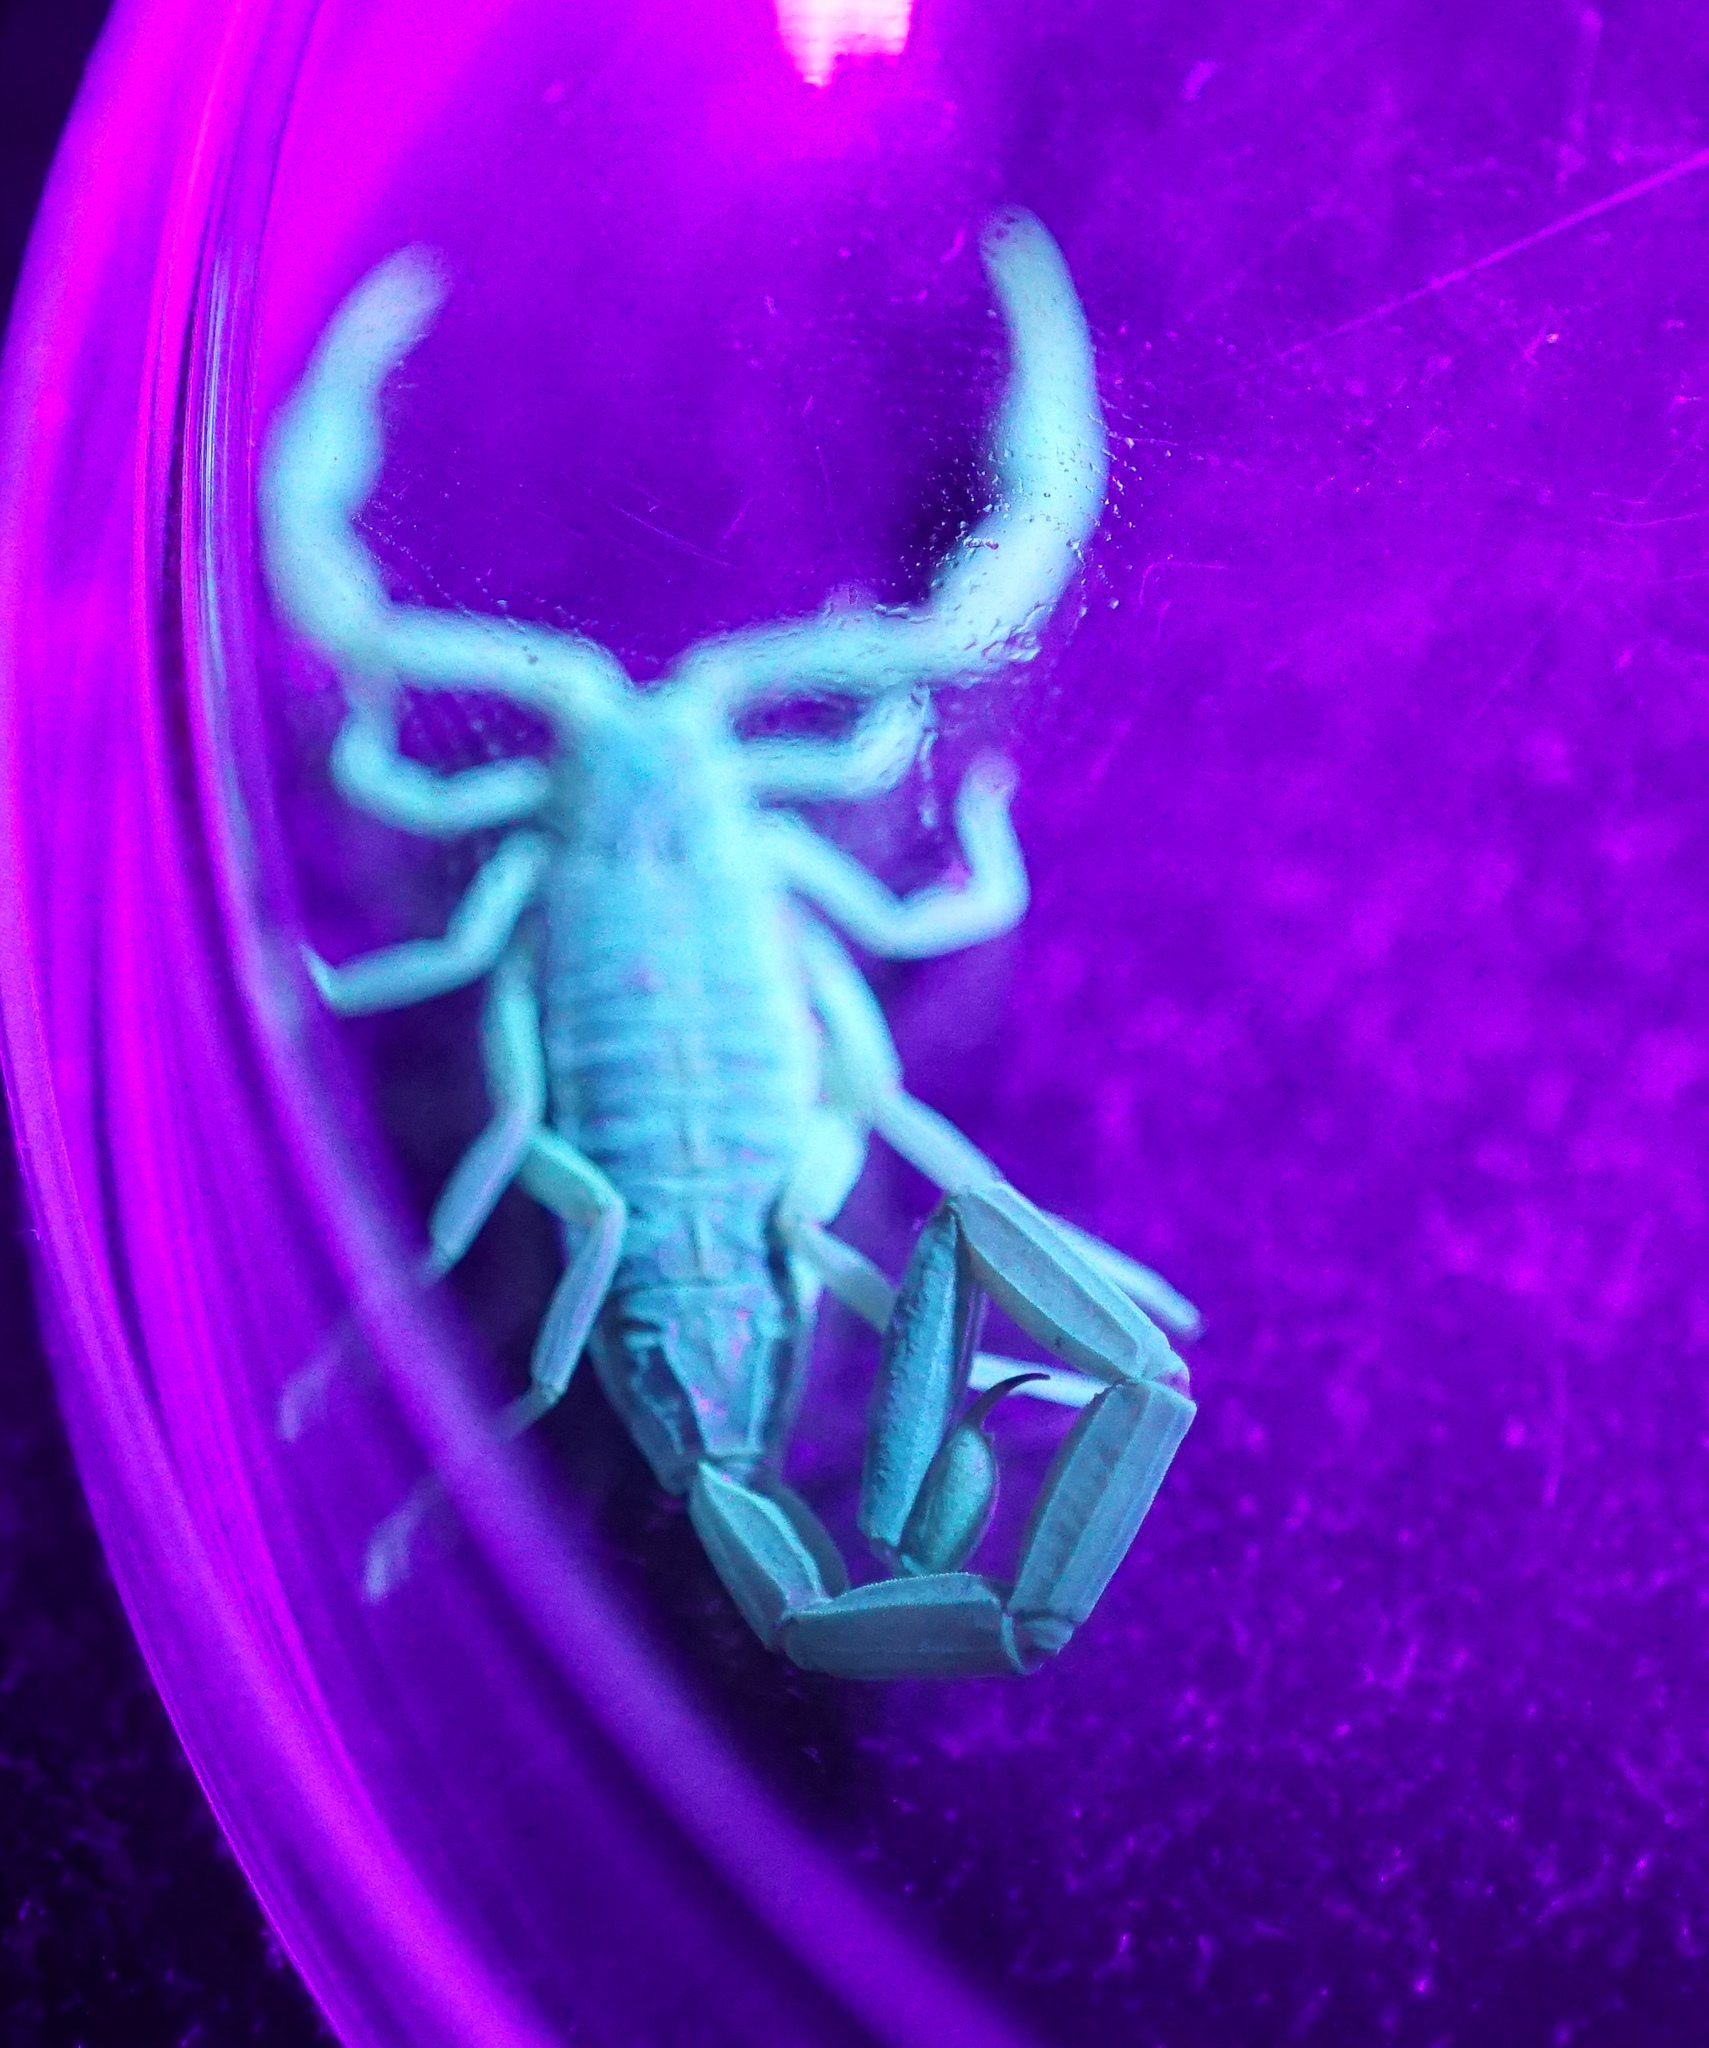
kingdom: Animalia
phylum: Arthropoda
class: Arachnida
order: Scorpiones
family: Buthidae
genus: Centruroides
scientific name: Centruroides vittatus
